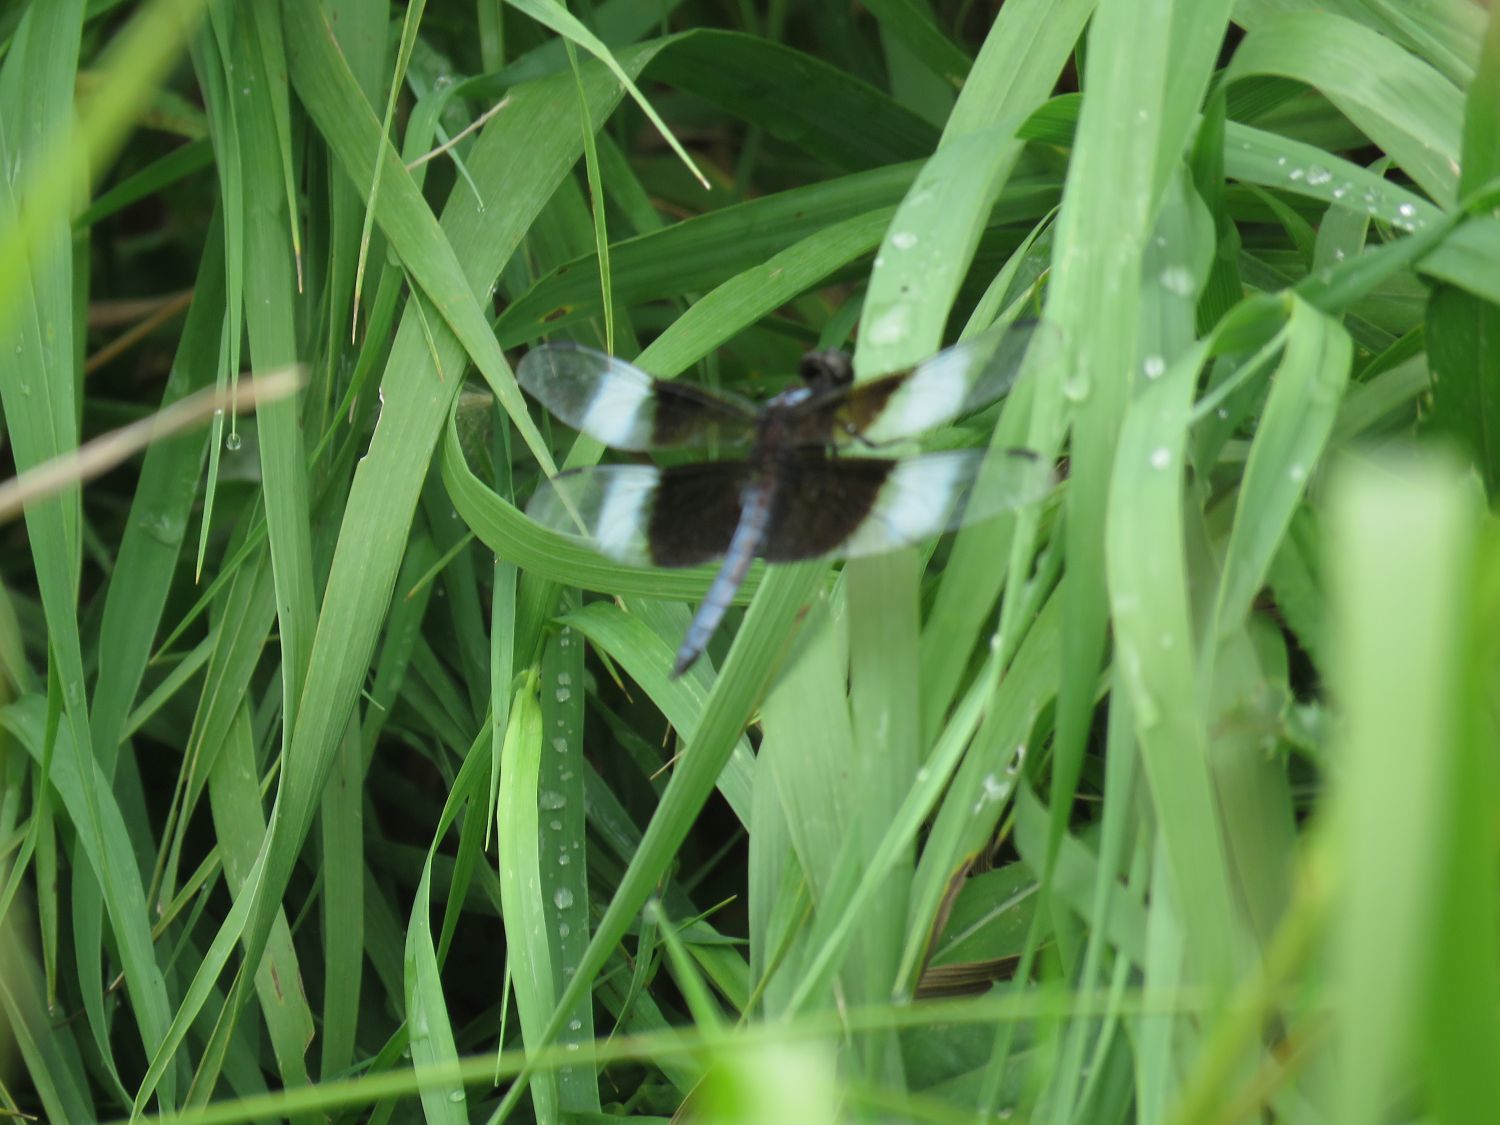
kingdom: Animalia
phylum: Arthropoda
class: Insecta
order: Odonata
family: Libellulidae
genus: Libellula
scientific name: Libellula luctuosa
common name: Widow skimmer
